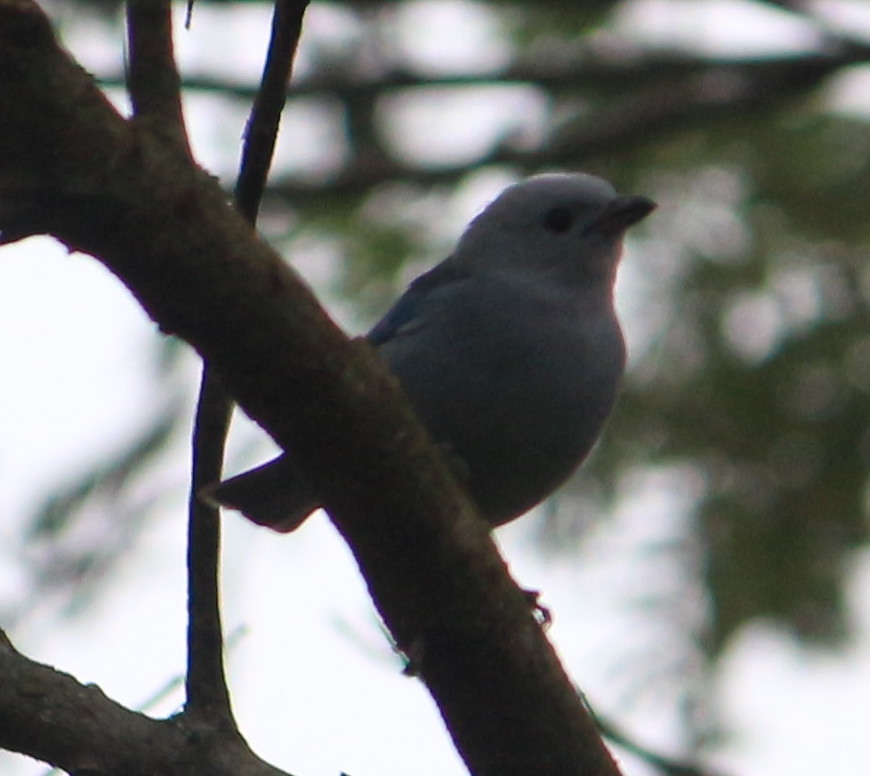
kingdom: Animalia
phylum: Chordata
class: Aves
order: Passeriformes
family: Thraupidae
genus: Thraupis
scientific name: Thraupis episcopus
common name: Blue-grey tanager
